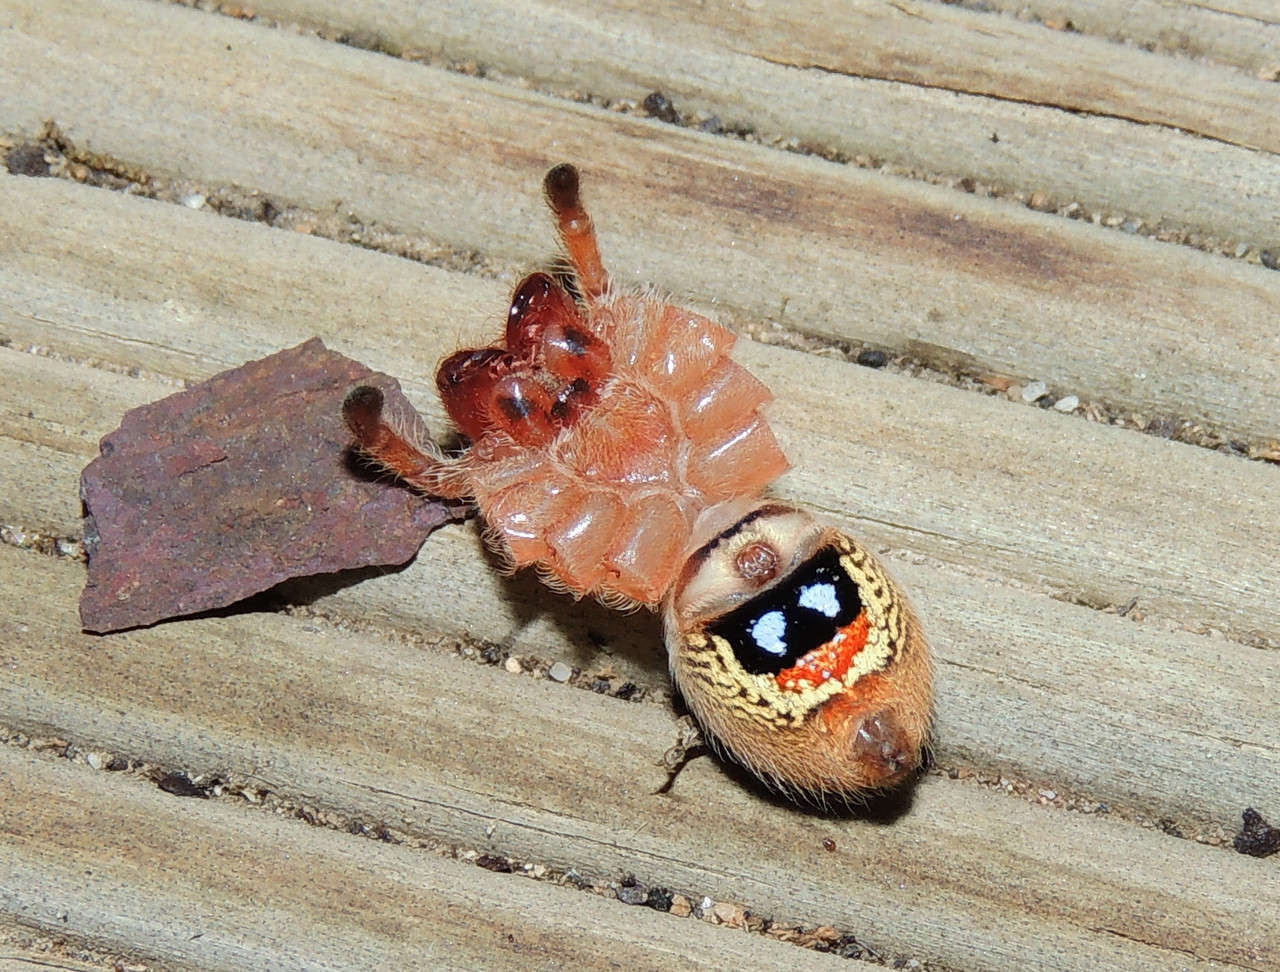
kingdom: Animalia
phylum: Arthropoda
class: Arachnida
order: Araneae
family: Sparassidae
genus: Neosparassus
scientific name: Neosparassus diana
